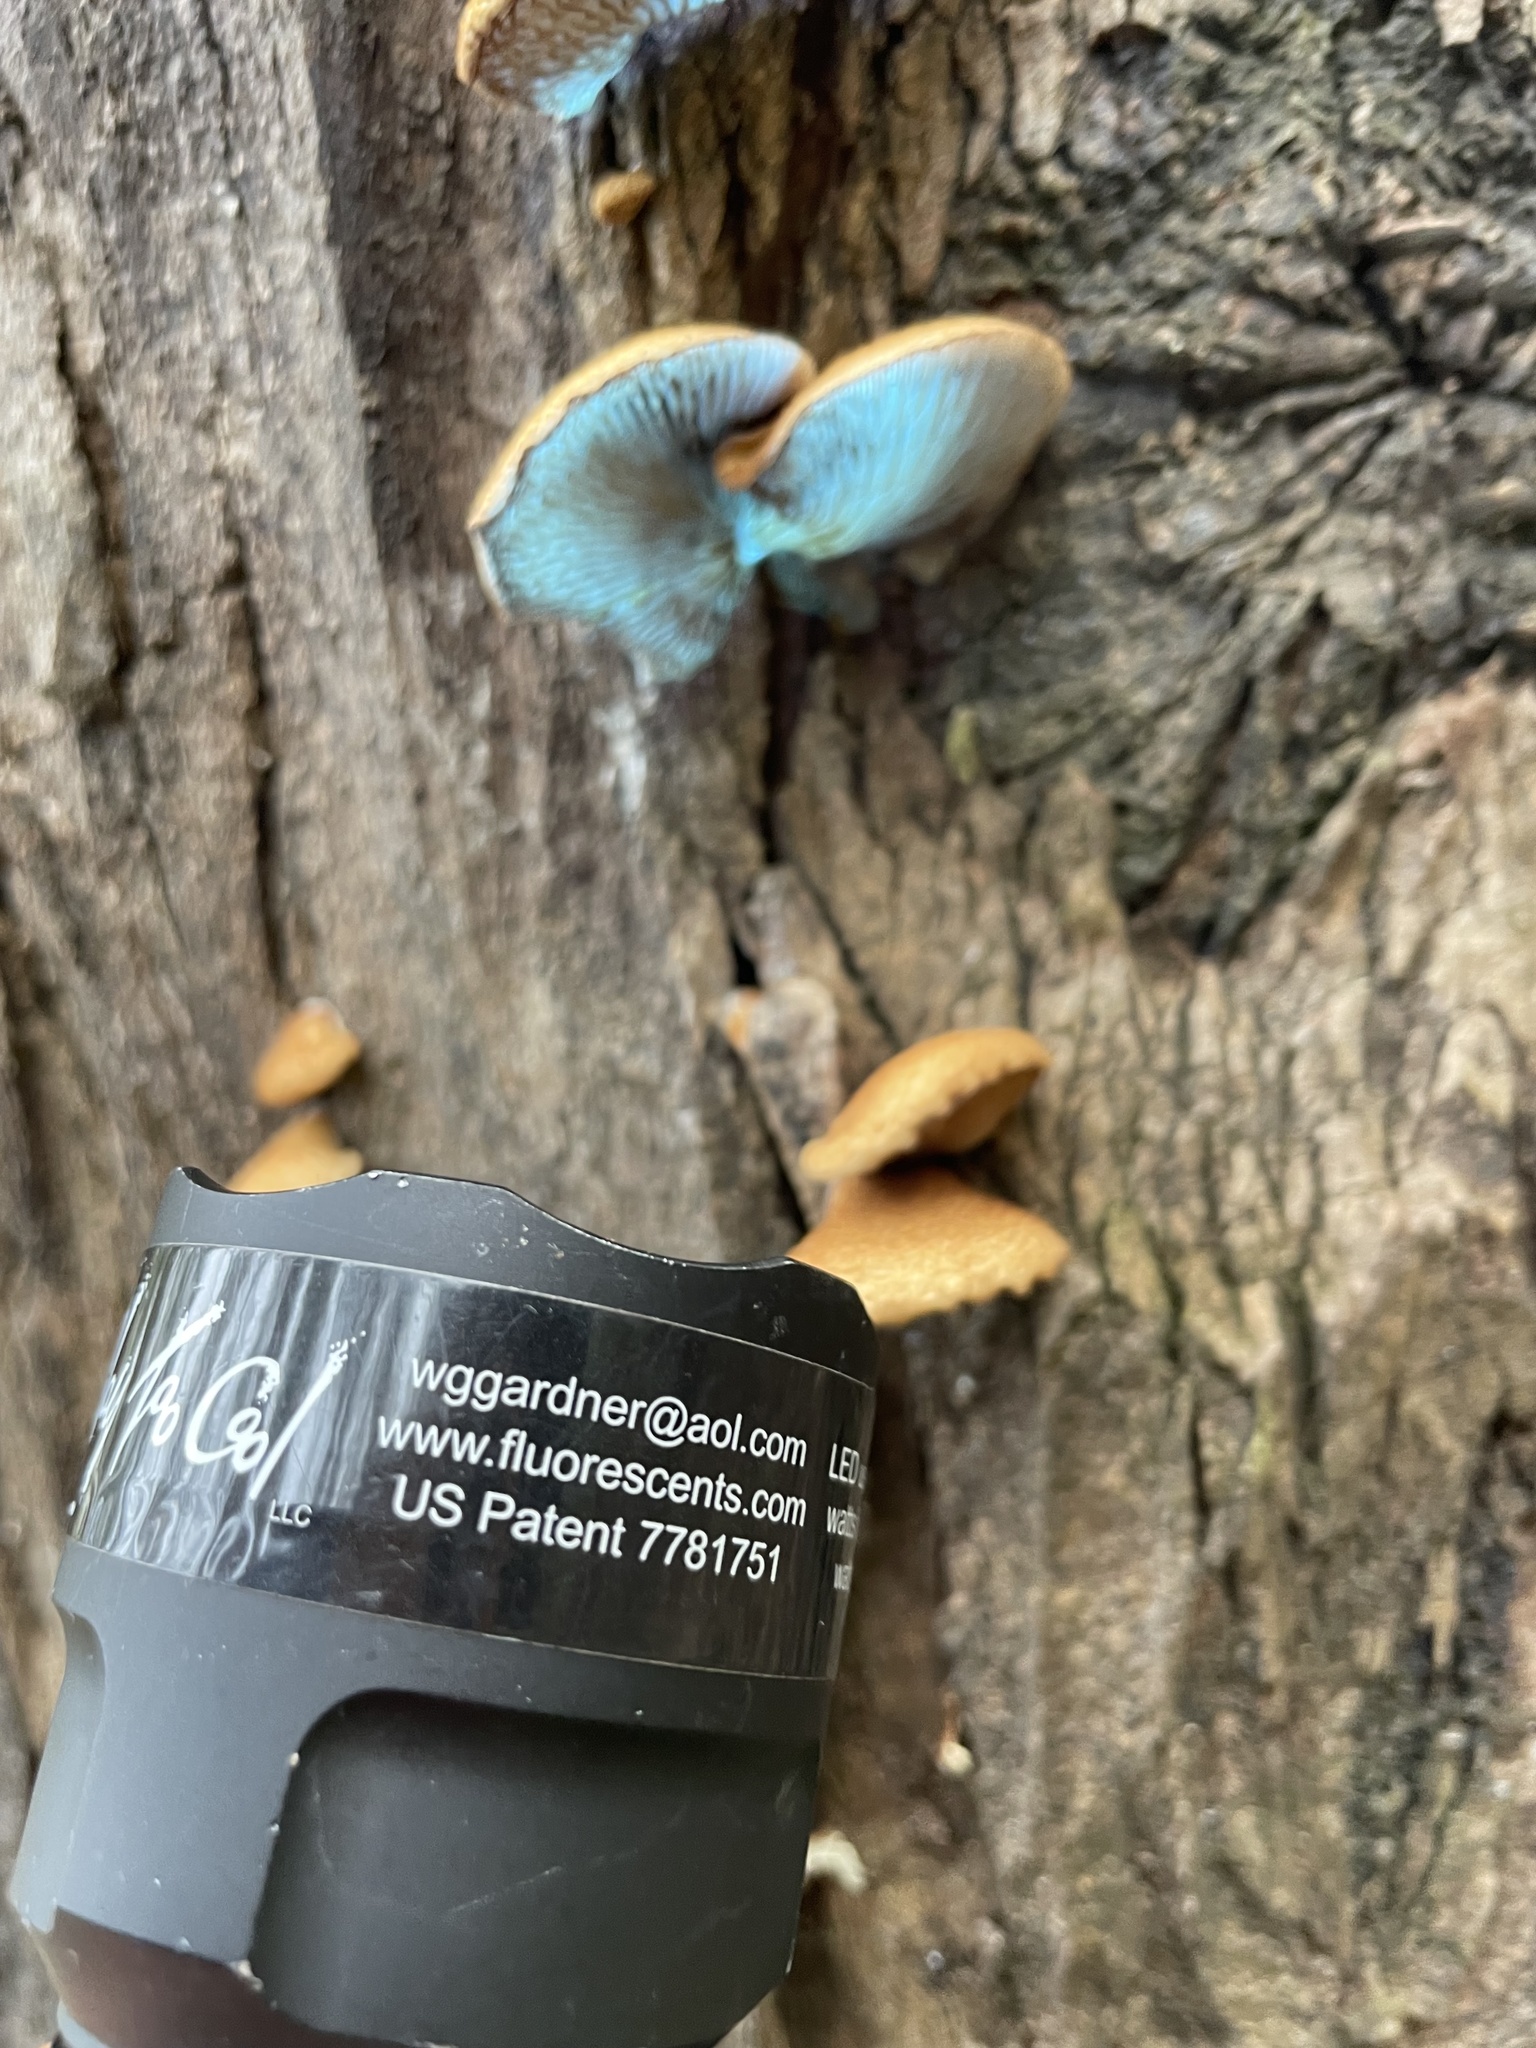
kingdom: Fungi
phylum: Basidiomycota
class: Agaricomycetes
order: Agaricales
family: Crepidotaceae
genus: Crepidotus
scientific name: Crepidotus mollis
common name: Peeling oysterling
